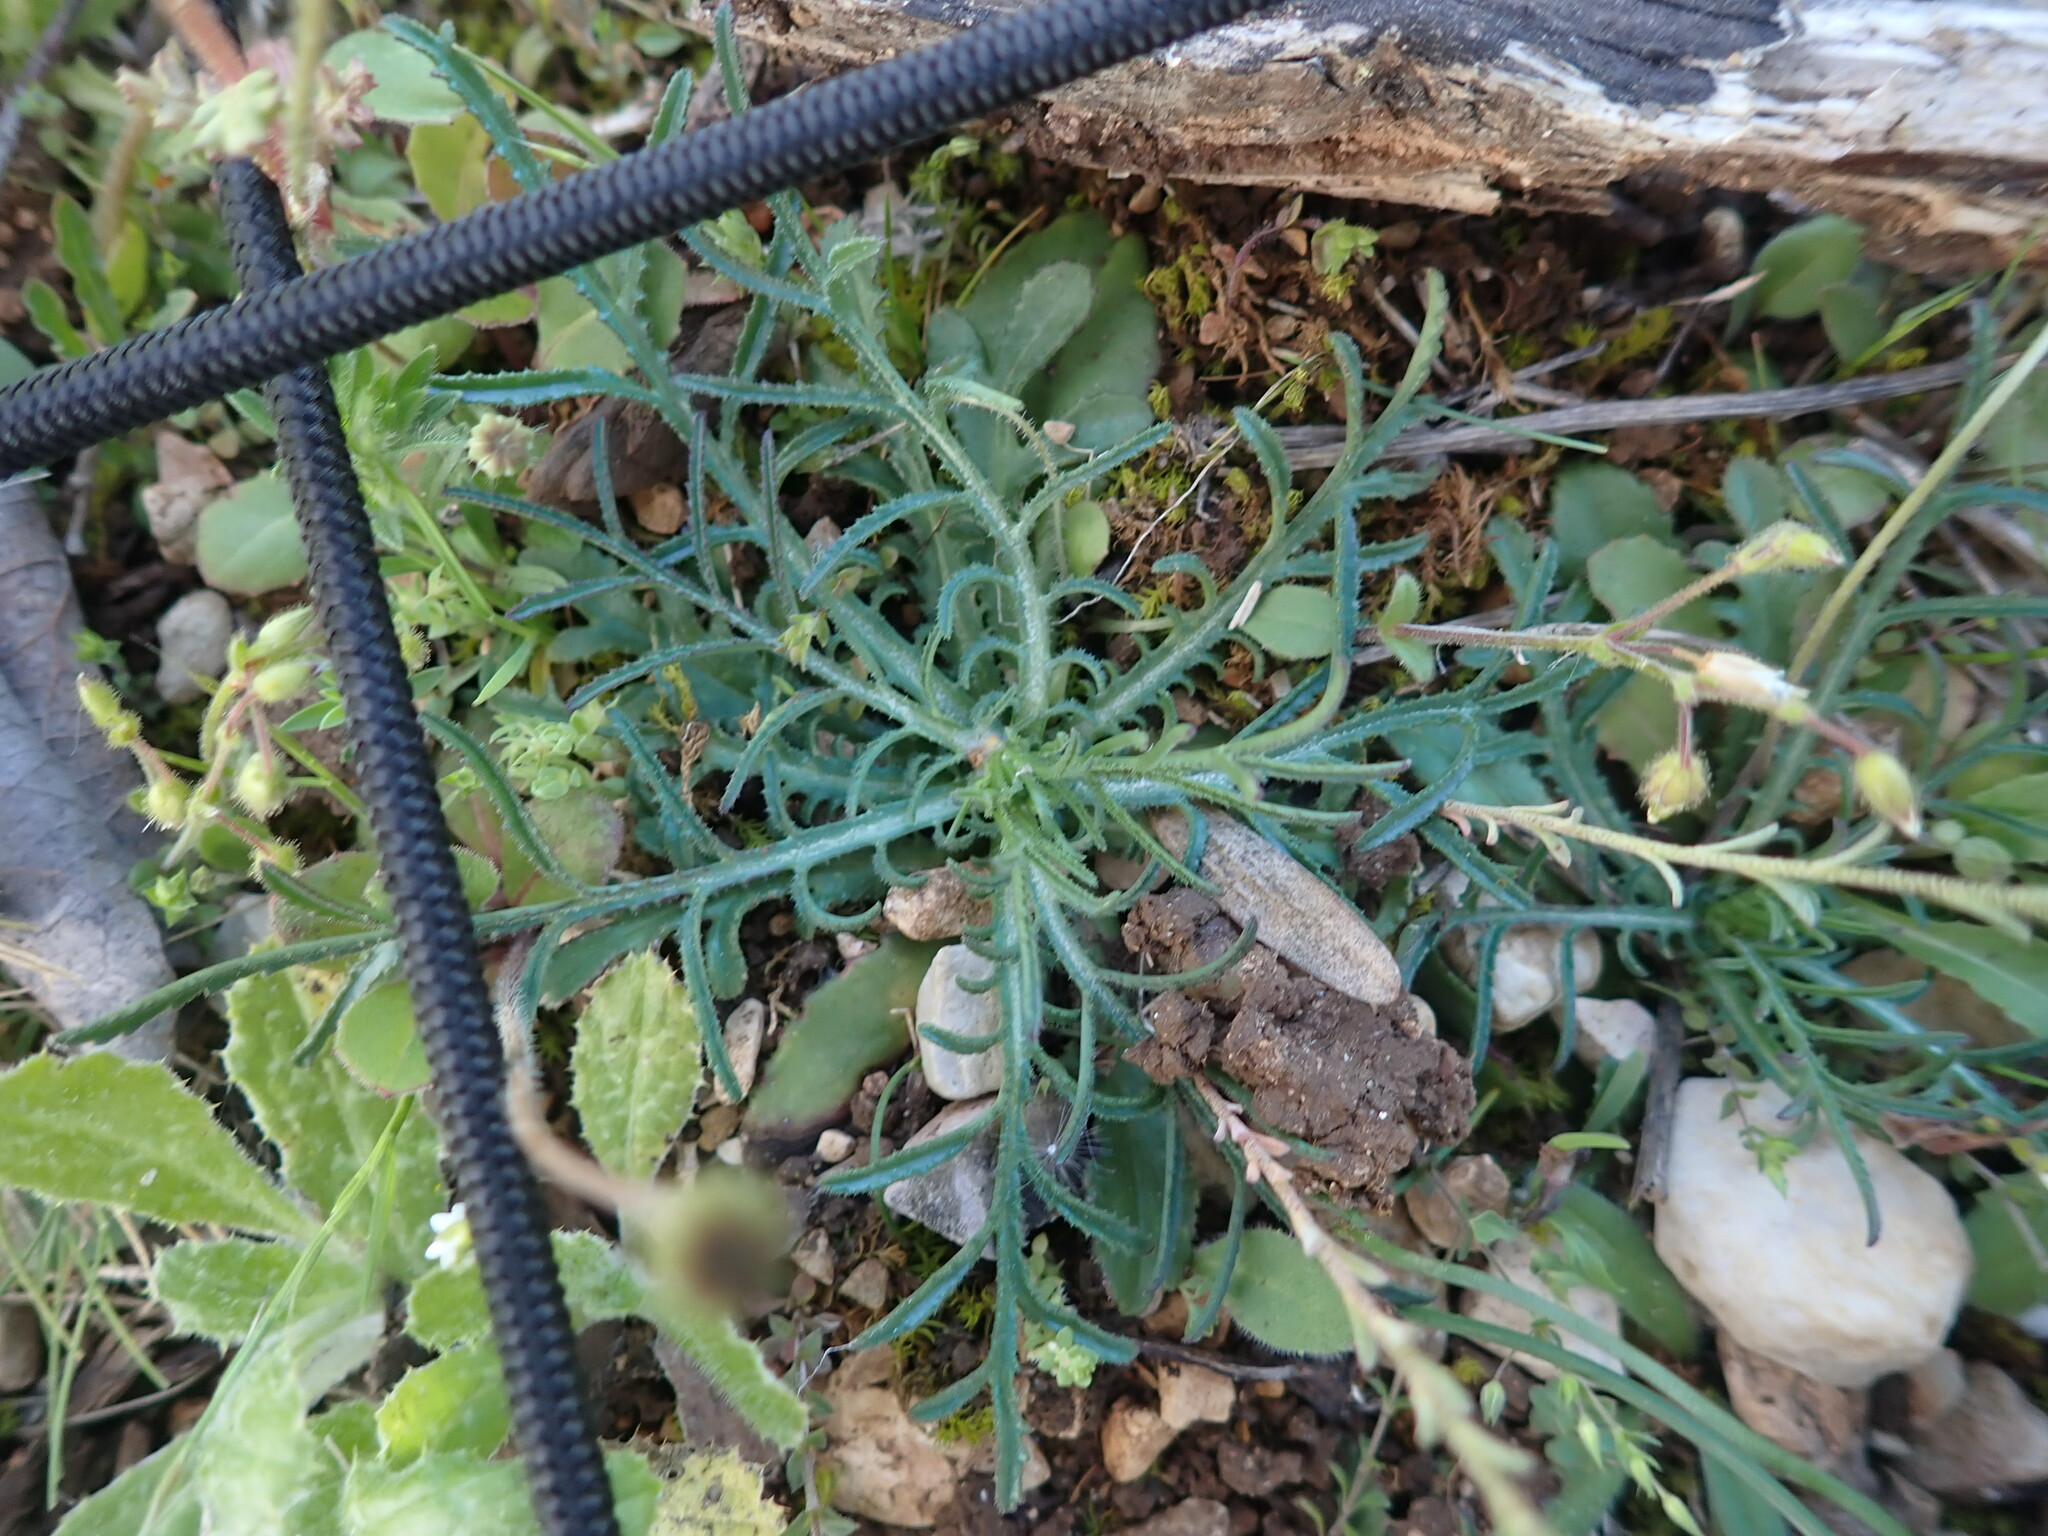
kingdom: Plantae
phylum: Tracheophyta
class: Magnoliopsida
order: Asterales
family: Asteraceae
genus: Crupina
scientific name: Crupina vulgaris
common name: Common crupina
